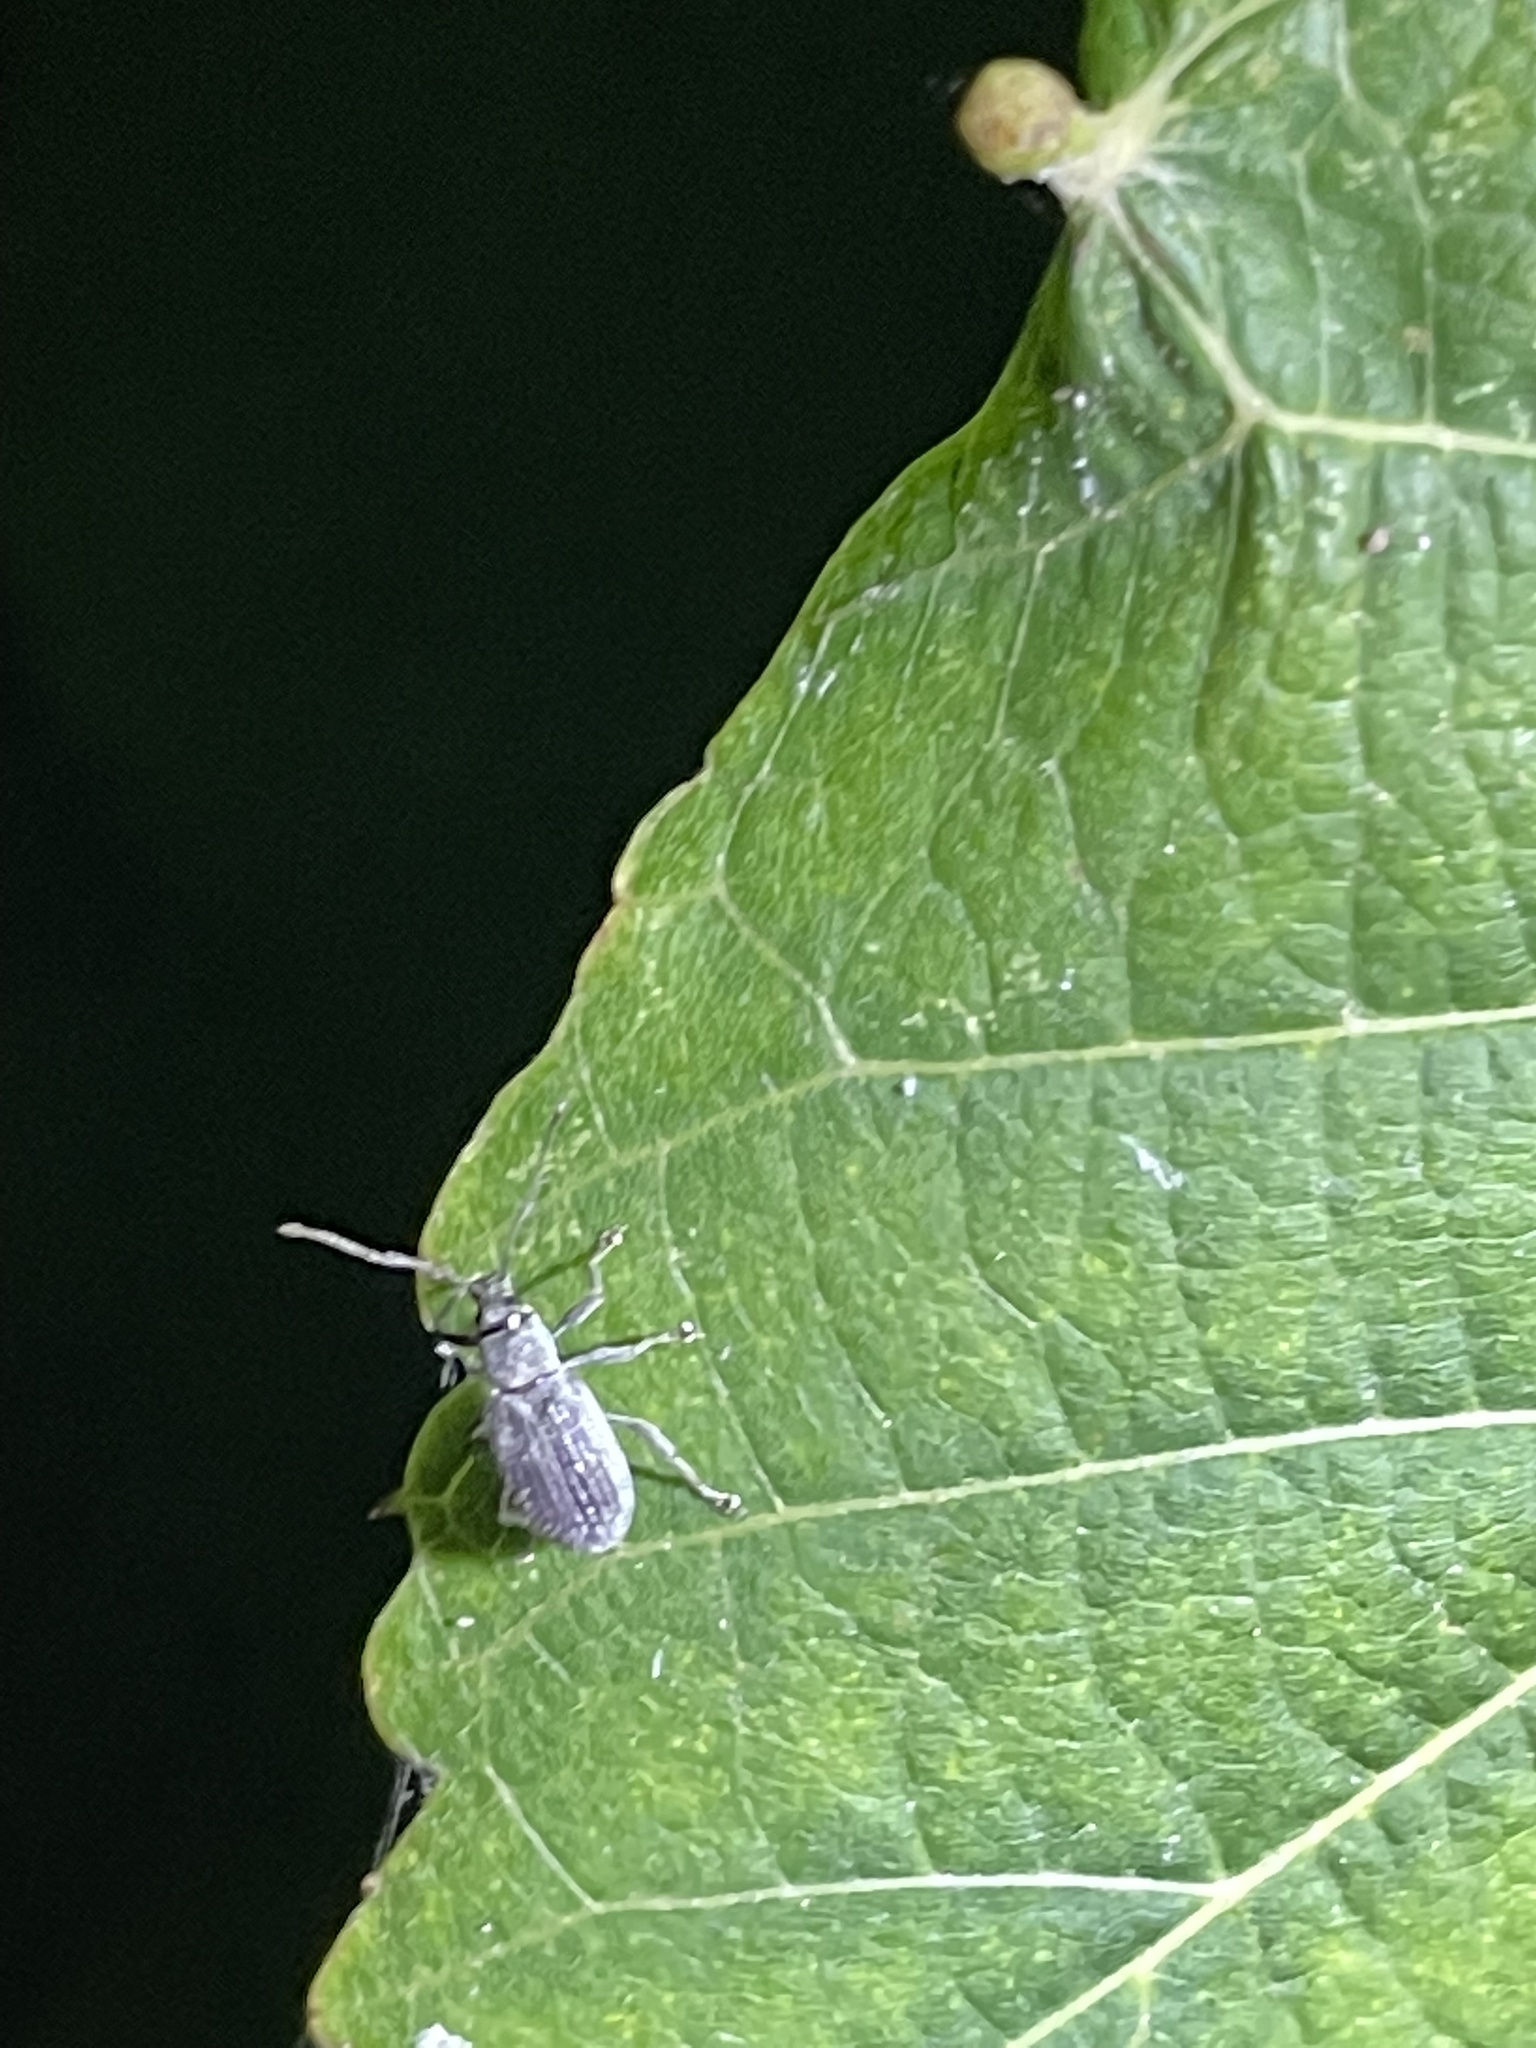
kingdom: Animalia
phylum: Arthropoda
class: Insecta
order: Coleoptera
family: Curculionidae
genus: Cyrtepistomus
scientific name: Cyrtepistomus castaneus
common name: Weevil
